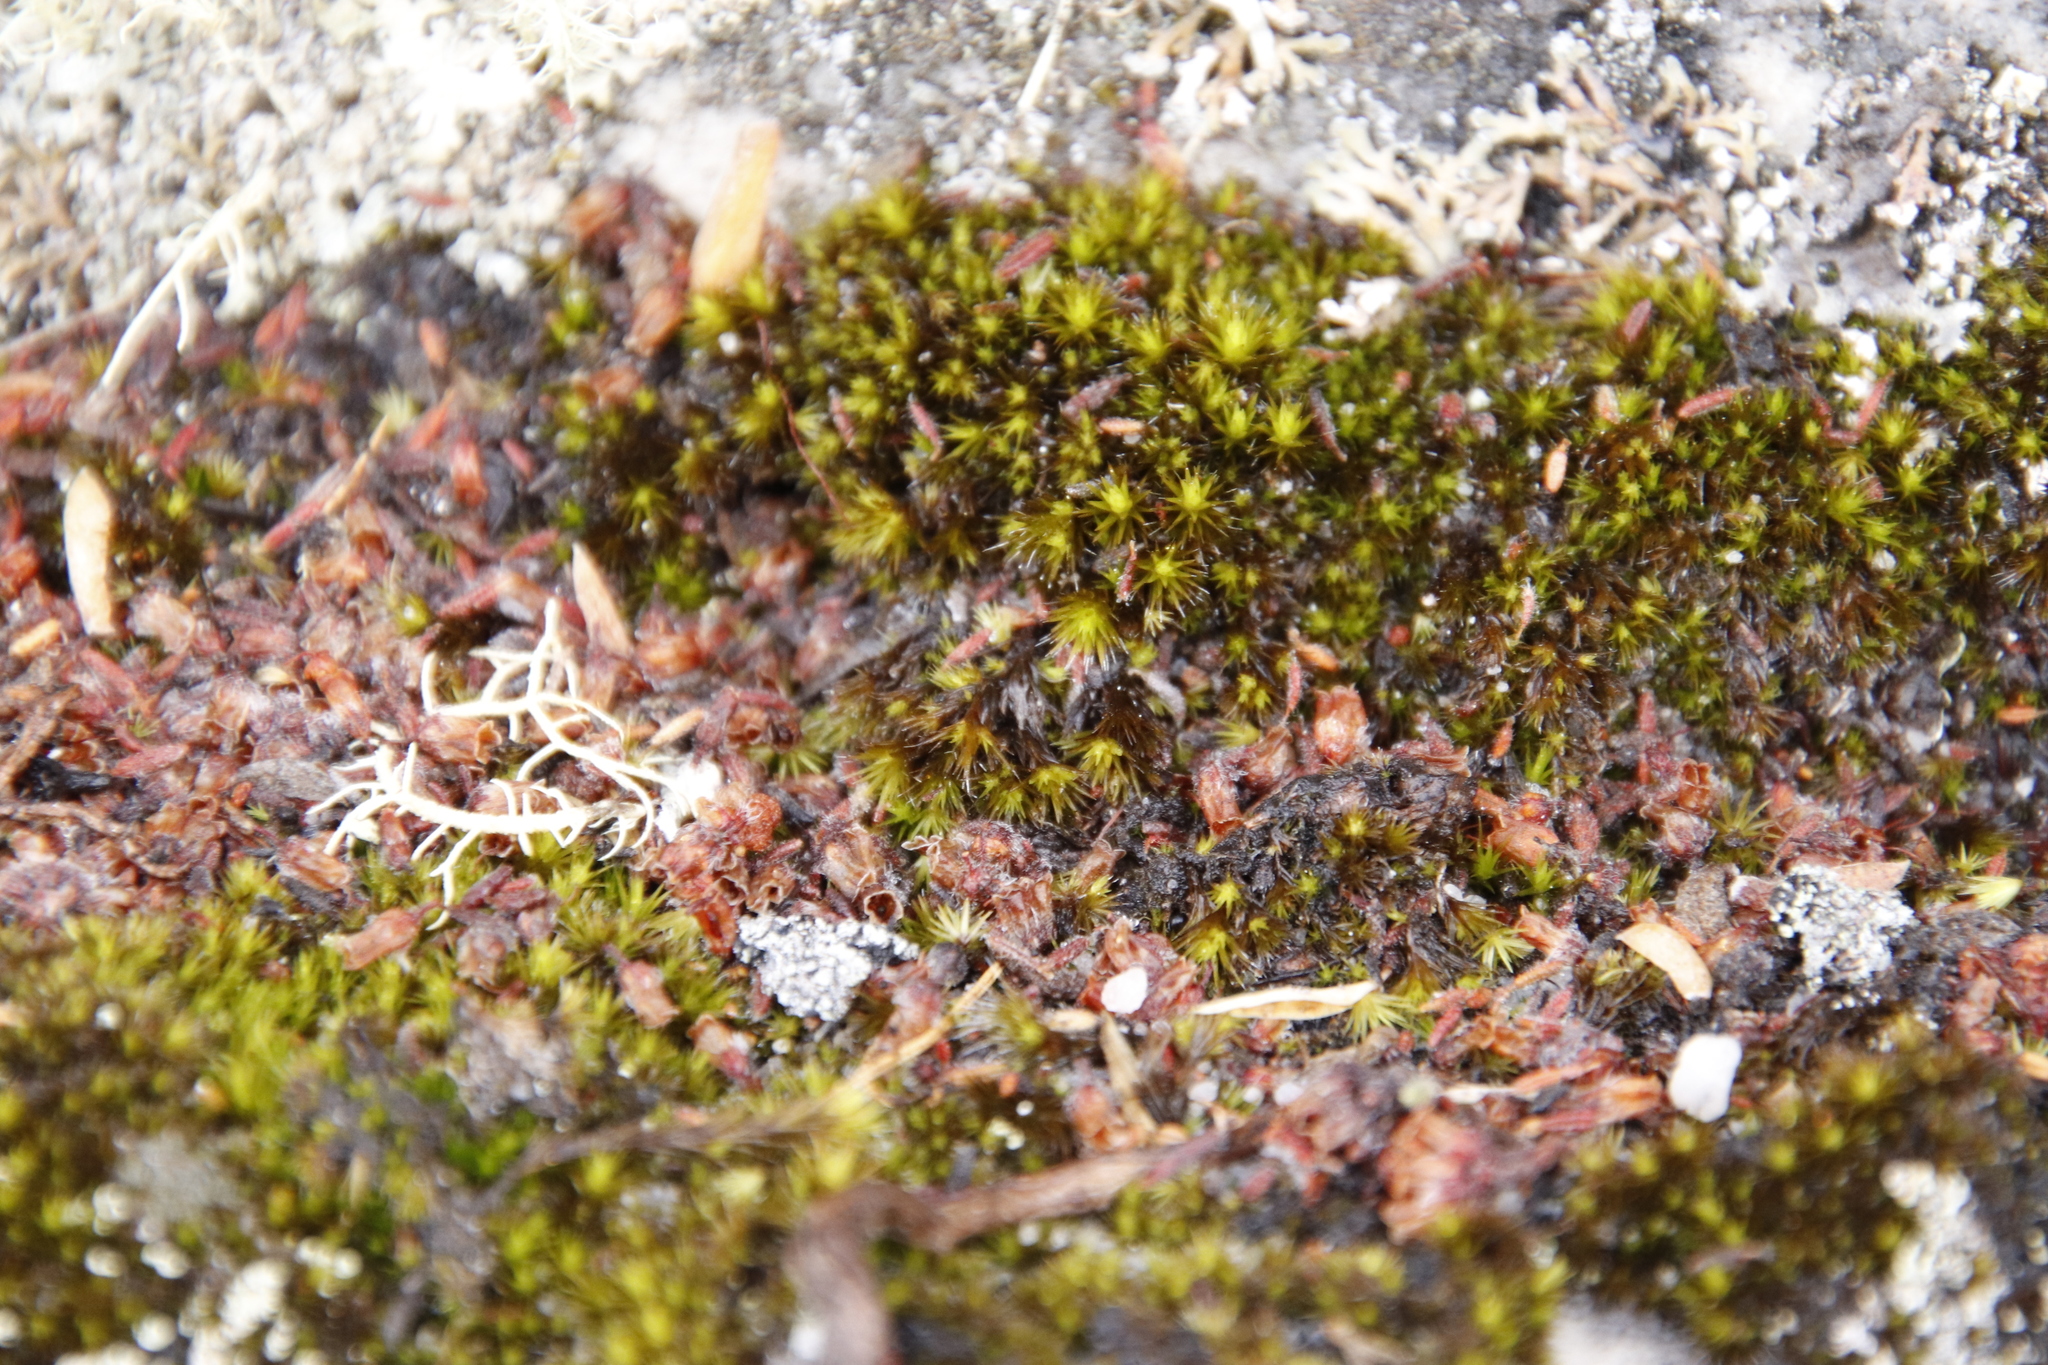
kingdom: Plantae
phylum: Bryophyta
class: Bryopsida
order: Dicranales
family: Leucobryaceae
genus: Campylopus
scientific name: Campylopus pilifer
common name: Campylopus moss
